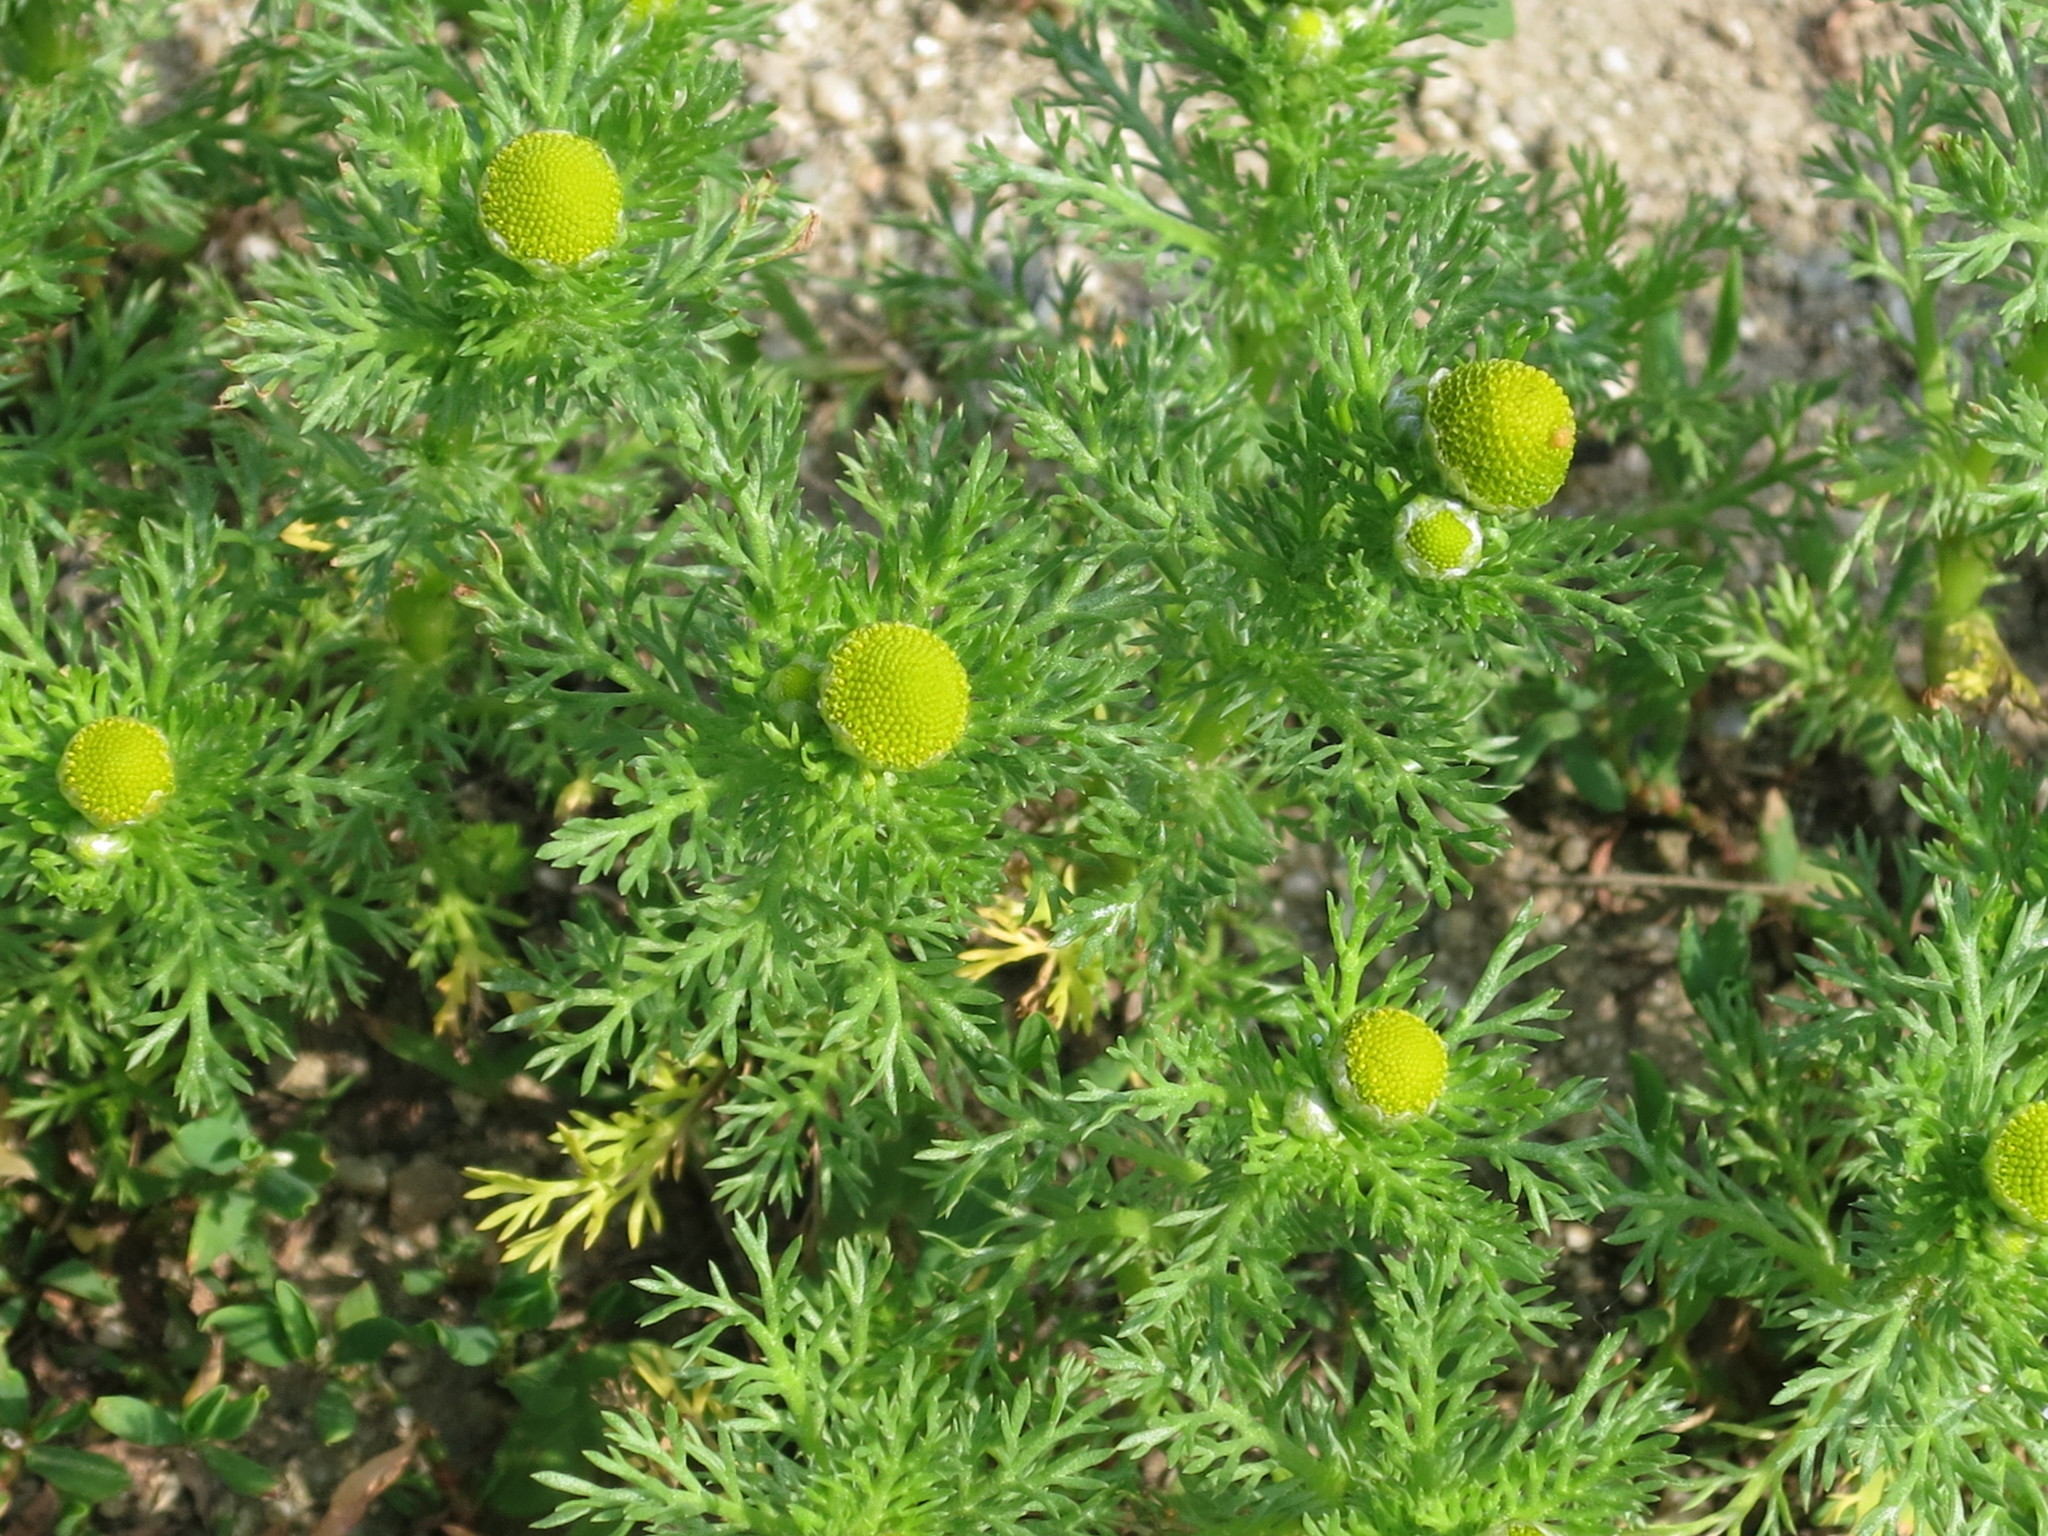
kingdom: Plantae
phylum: Tracheophyta
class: Magnoliopsida
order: Asterales
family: Asteraceae
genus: Matricaria
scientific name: Matricaria discoidea
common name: Disc mayweed
